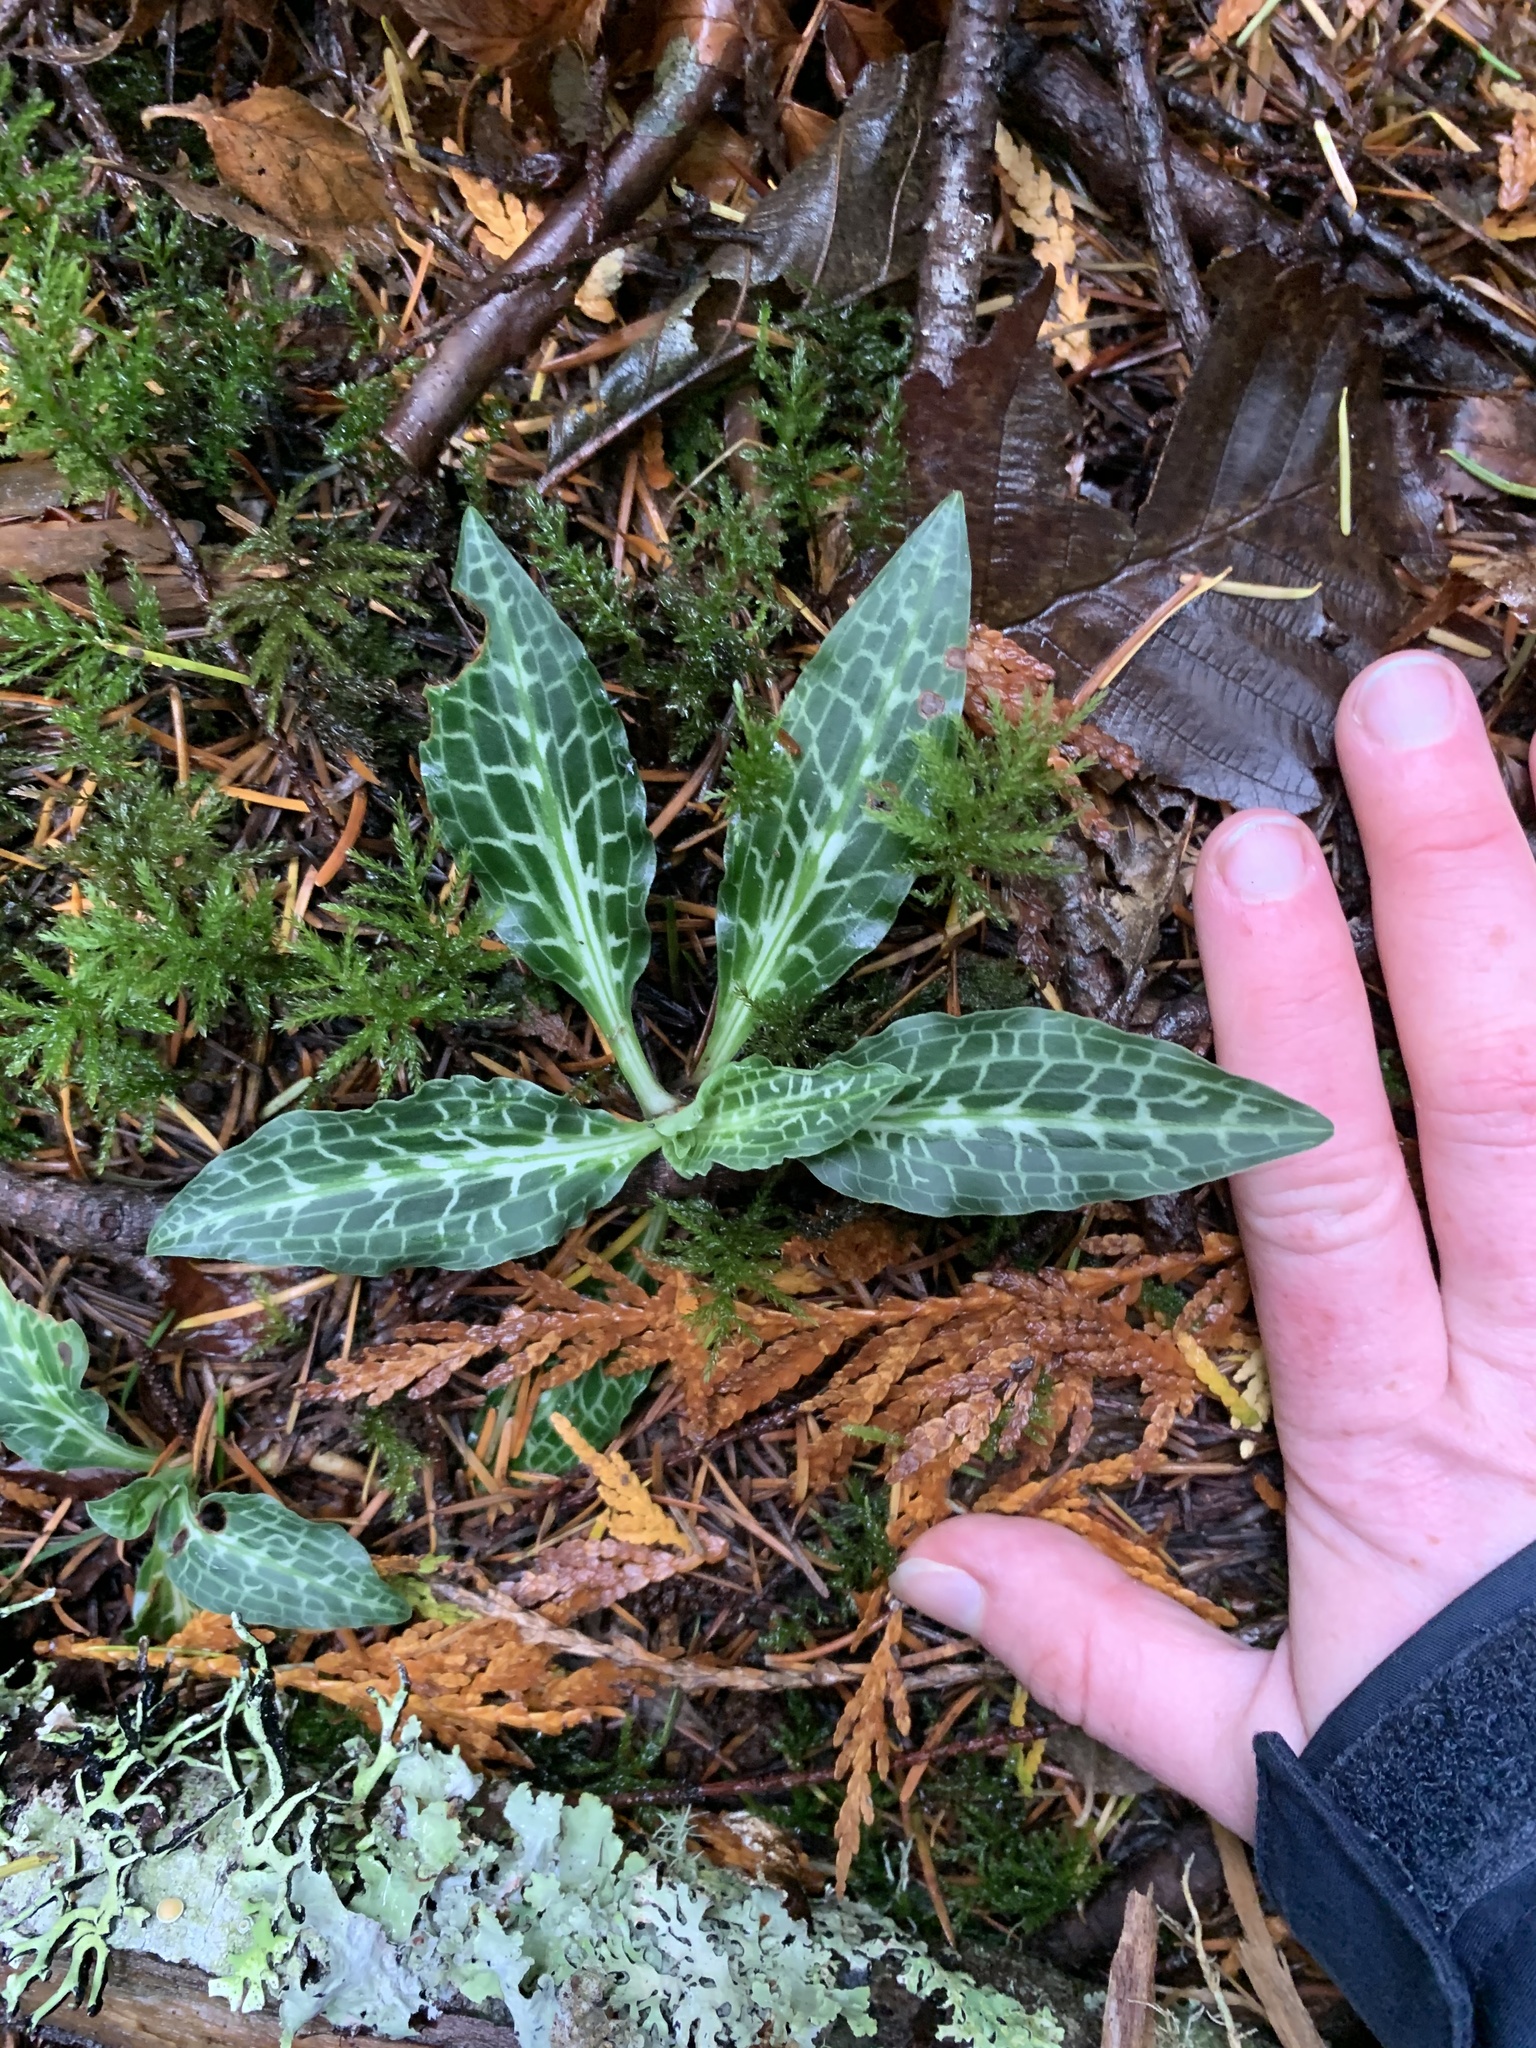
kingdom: Plantae
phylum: Tracheophyta
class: Liliopsida
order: Asparagales
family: Orchidaceae
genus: Goodyera
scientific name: Goodyera oblongifolia
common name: Giant rattlesnake-plantain
